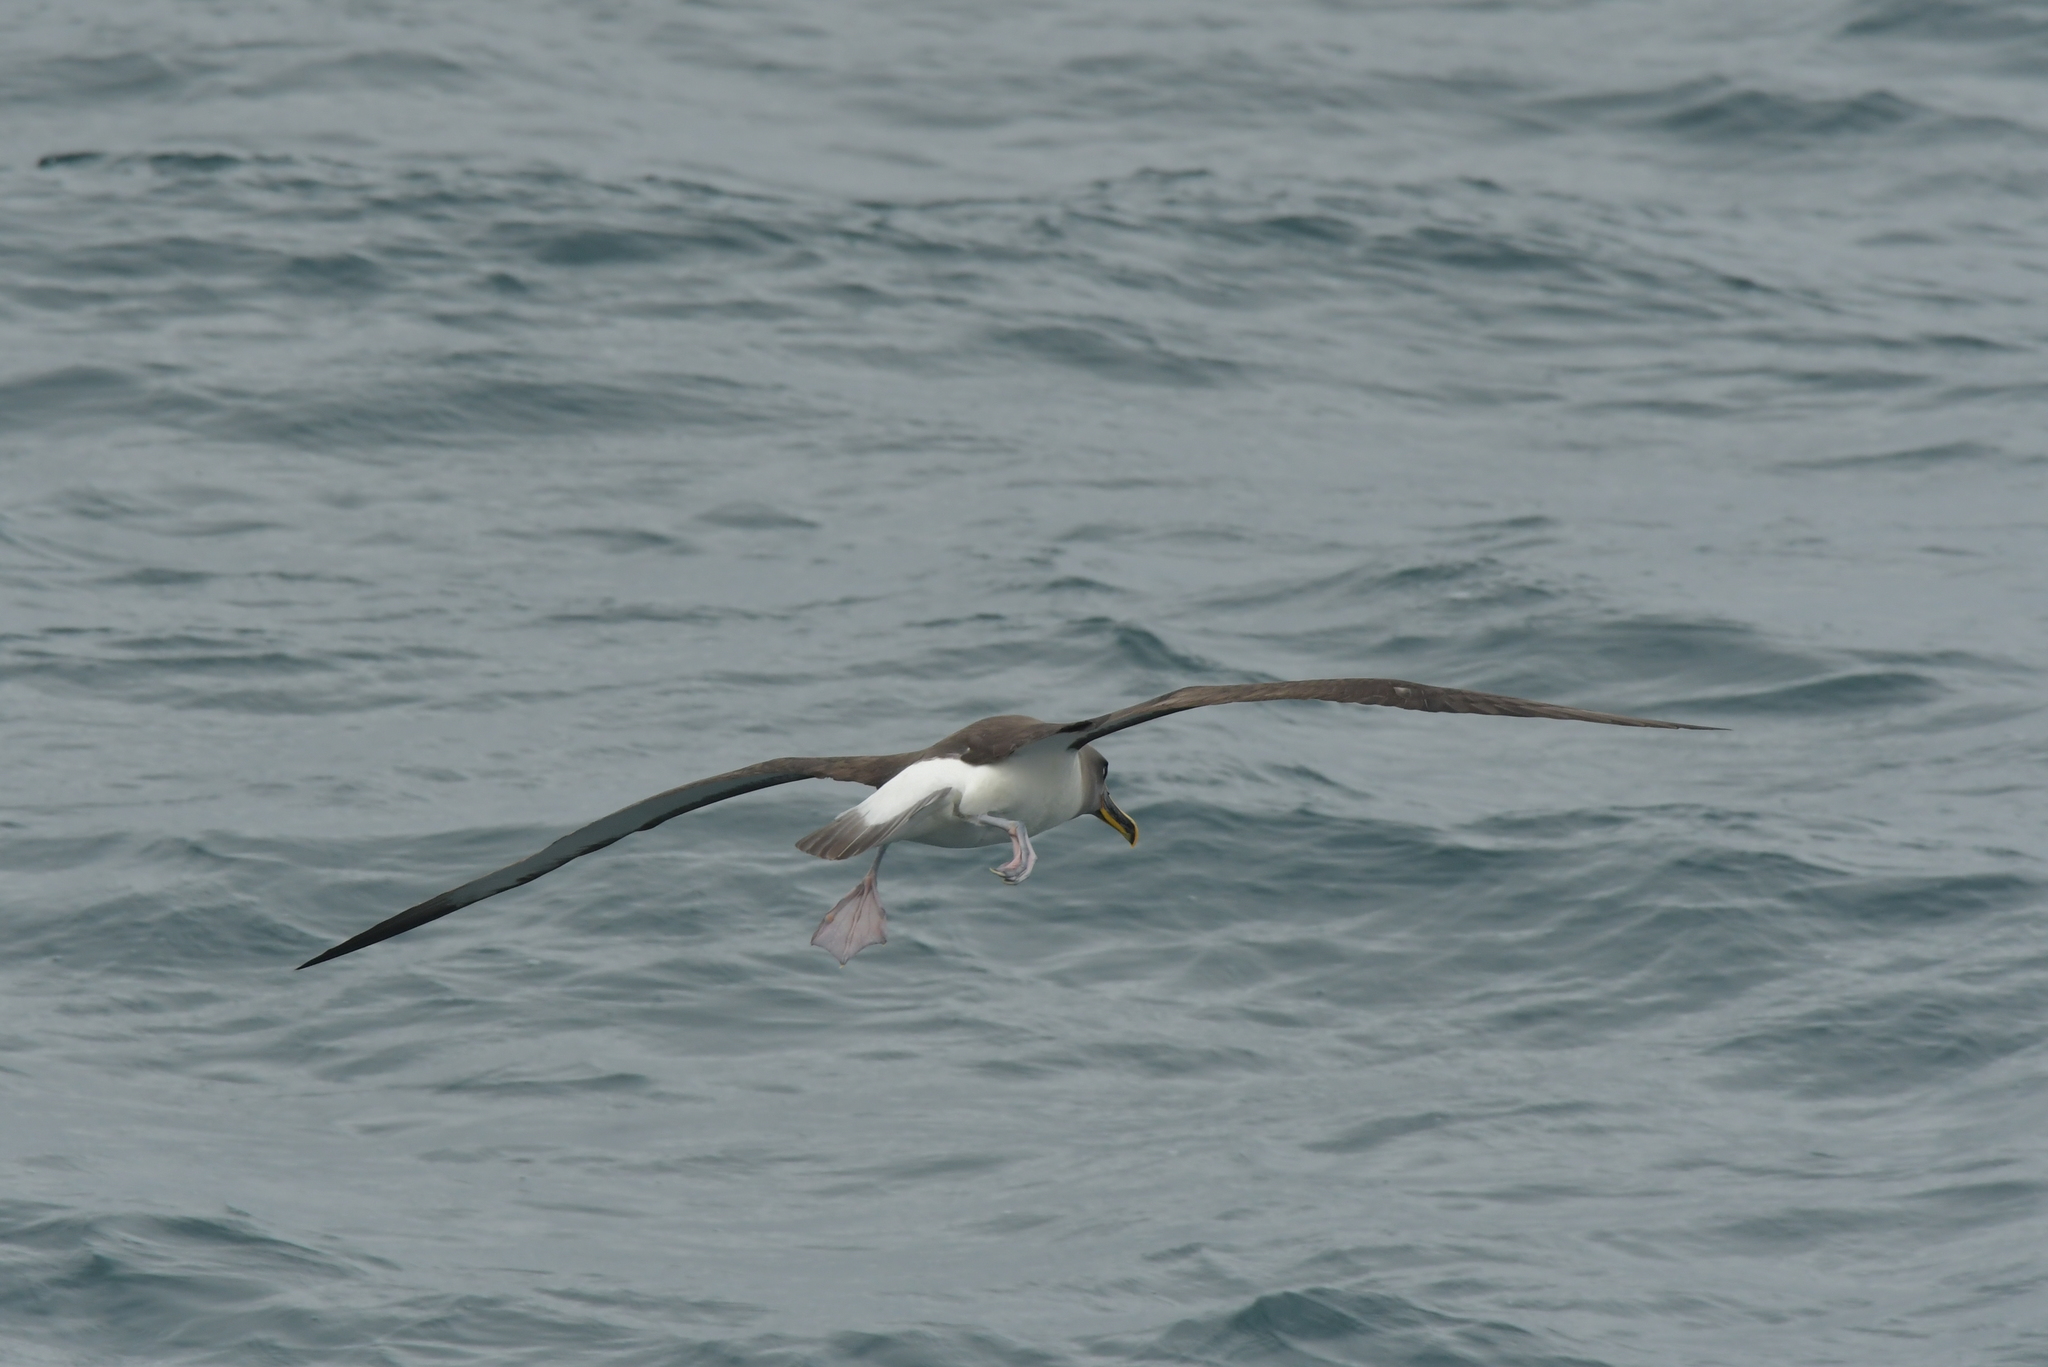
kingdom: Animalia
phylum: Chordata
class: Aves
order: Procellariiformes
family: Diomedeidae
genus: Thalassarche
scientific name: Thalassarche bulleri
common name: Buller's albatross
